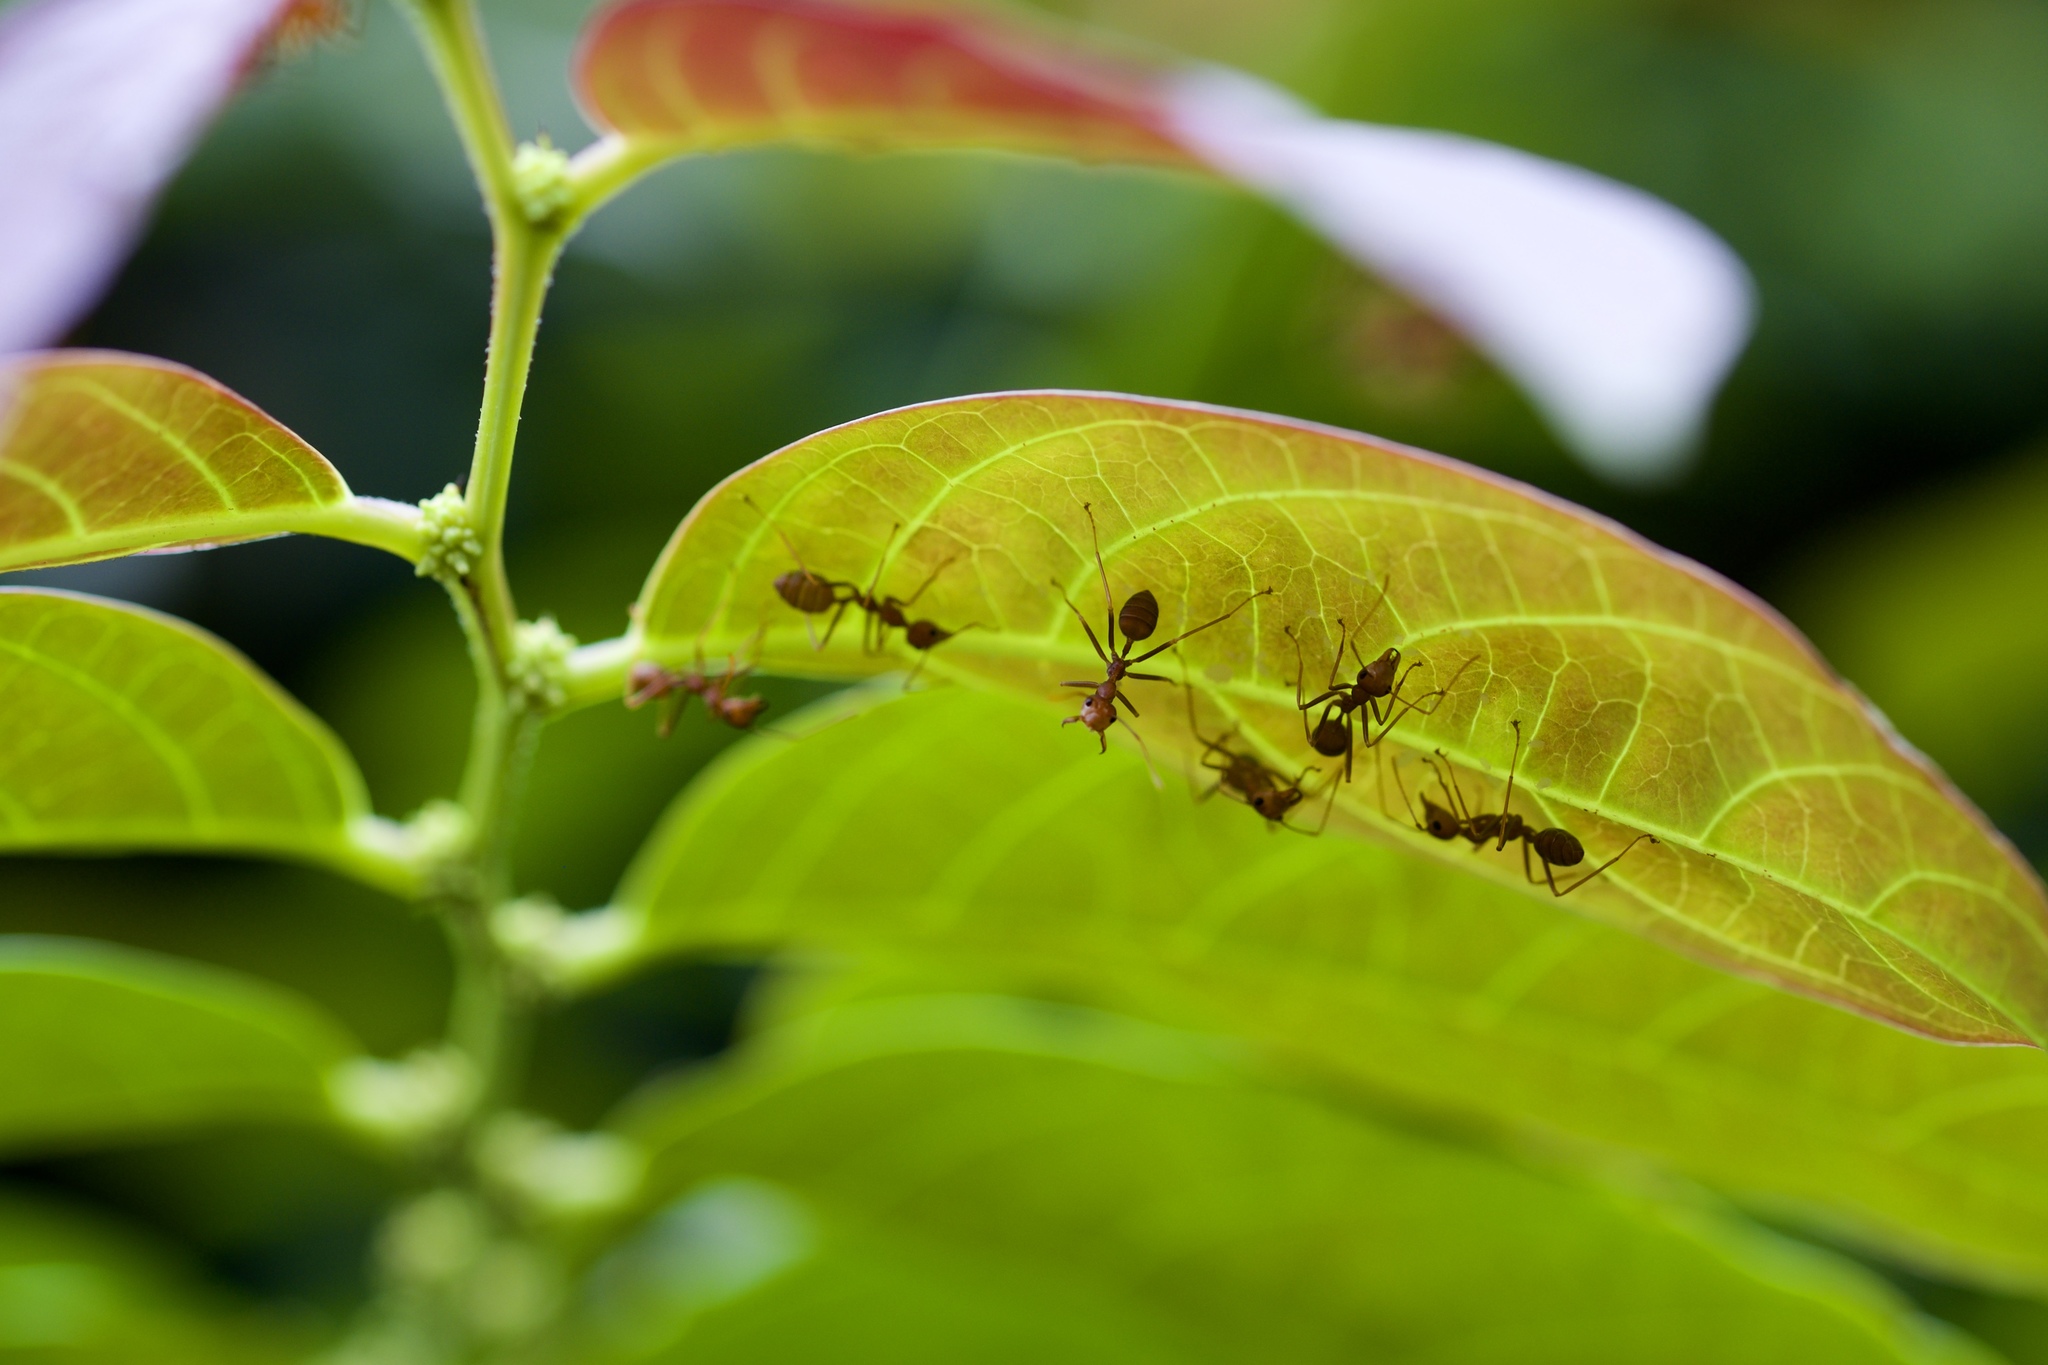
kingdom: Animalia
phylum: Arthropoda
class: Insecta
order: Hymenoptera
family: Formicidae
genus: Oecophylla
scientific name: Oecophylla smaragdina
